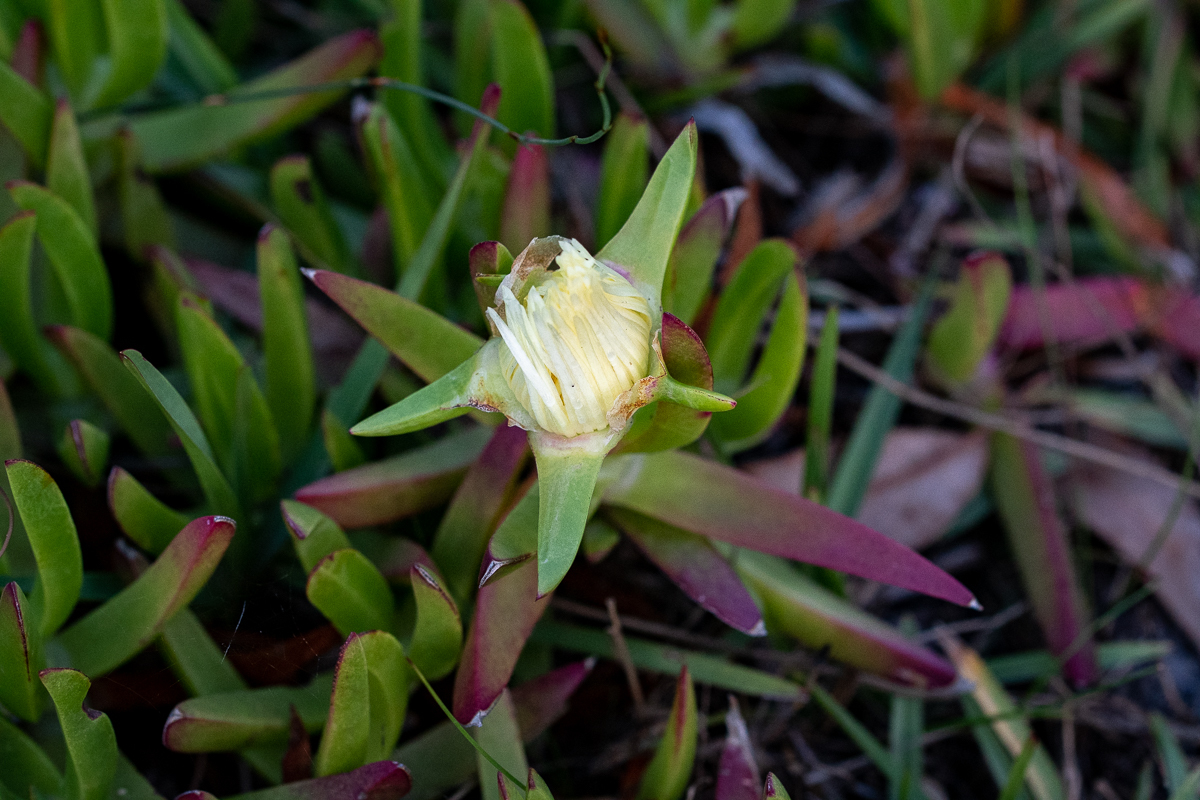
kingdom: Plantae
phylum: Tracheophyta
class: Magnoliopsida
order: Caryophyllales
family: Aizoaceae
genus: Carpobrotus
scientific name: Carpobrotus edulis
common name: Hottentot-fig
